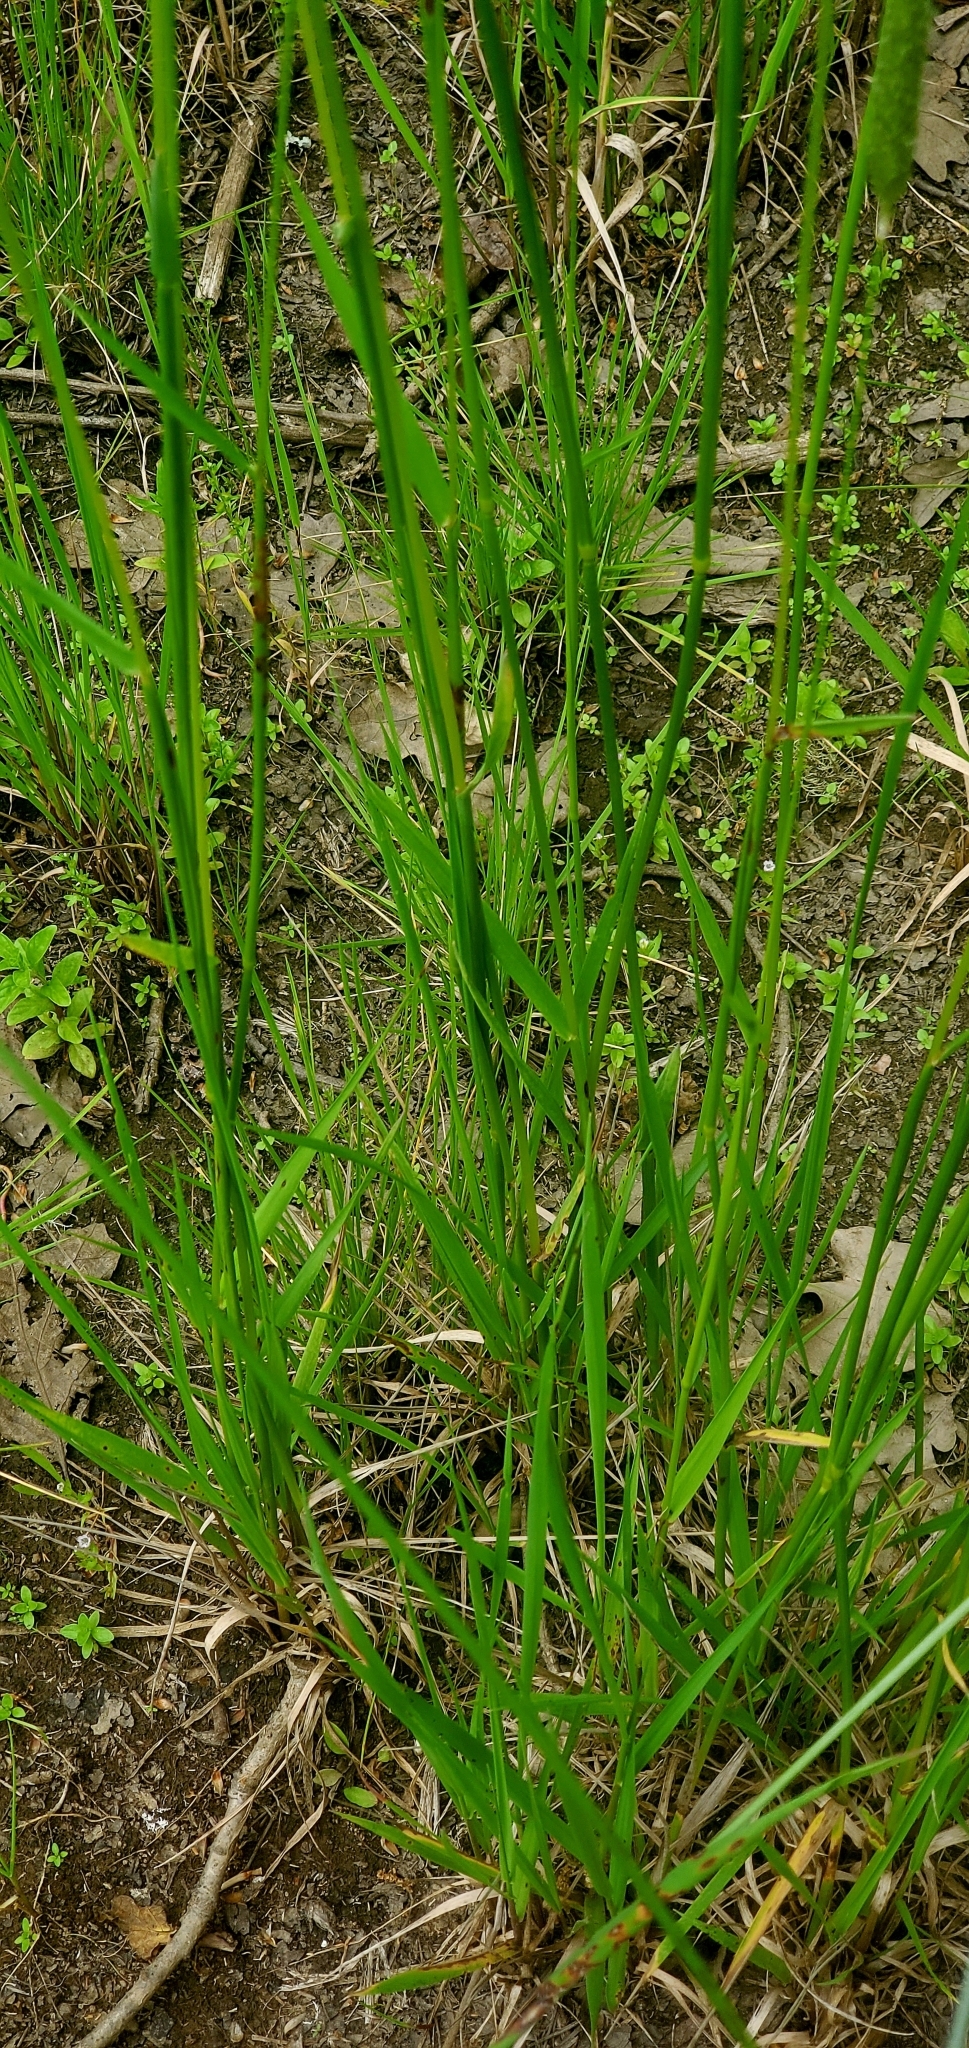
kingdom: Plantae
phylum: Tracheophyta
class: Liliopsida
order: Poales
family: Poaceae
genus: Alopecurus
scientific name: Alopecurus pratensis
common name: Meadow foxtail
